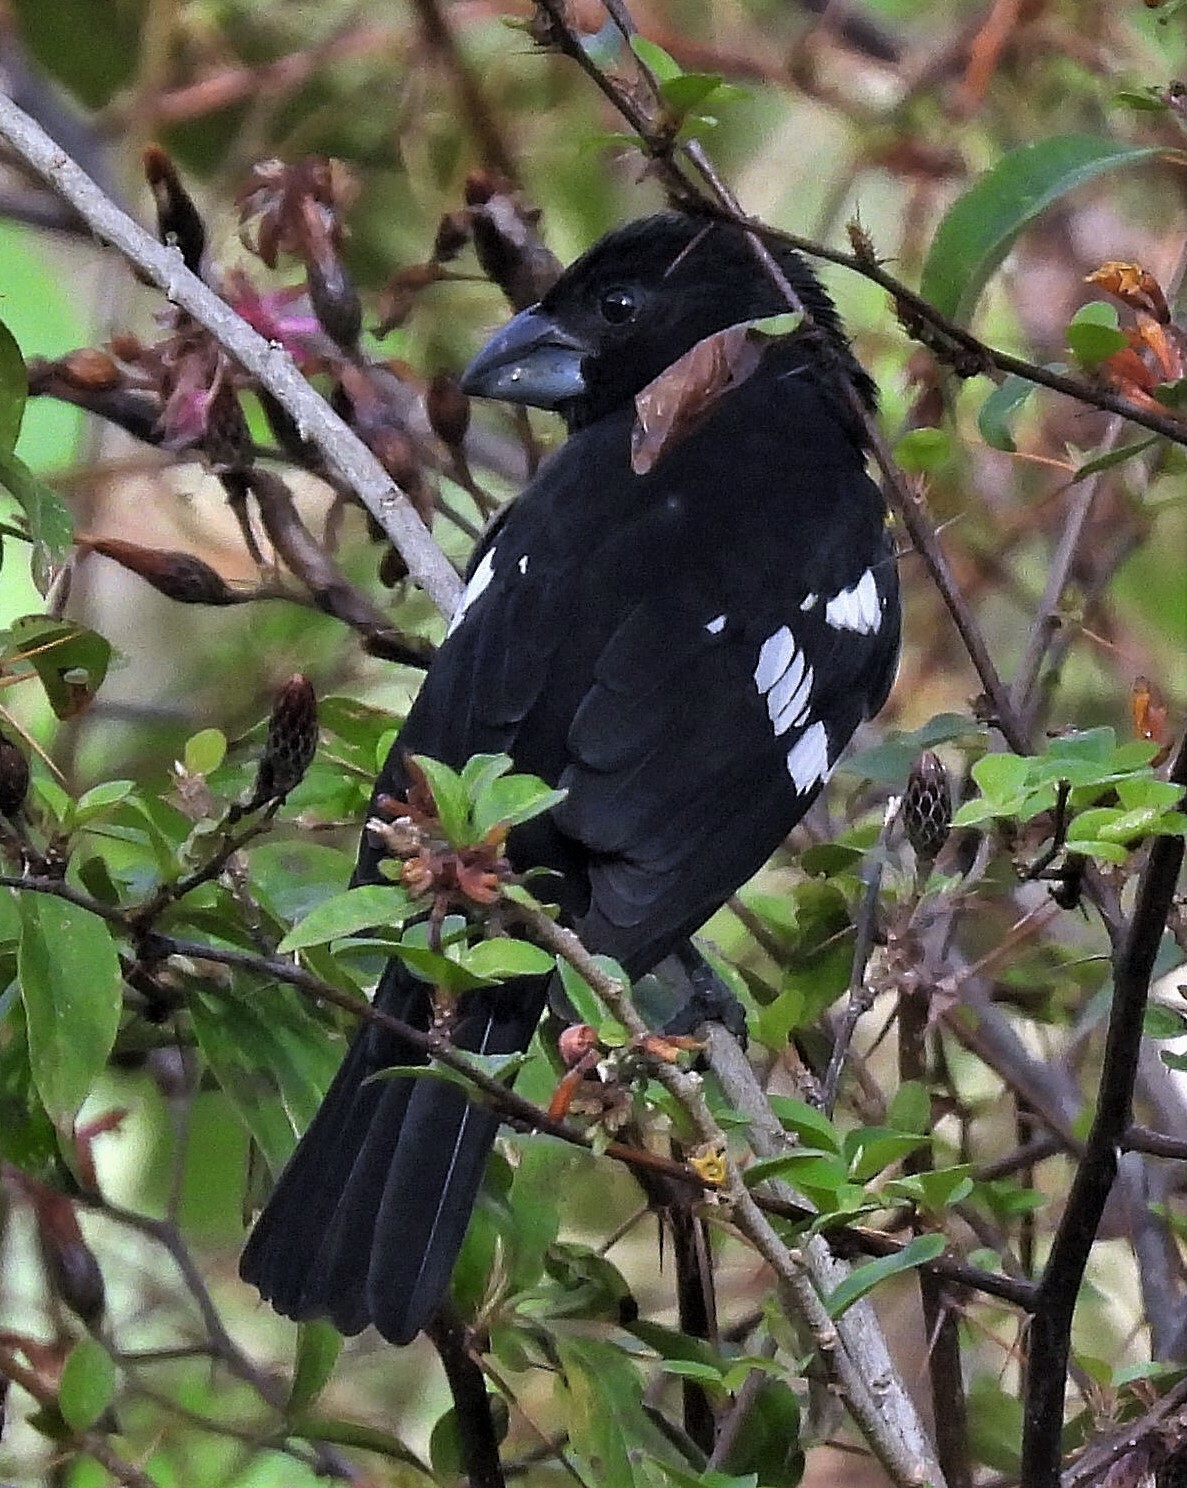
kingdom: Animalia
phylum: Chordata
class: Aves
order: Passeriformes
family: Cardinalidae
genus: Pheucticus
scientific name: Pheucticus aureoventris
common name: Black-backed grosbeak
